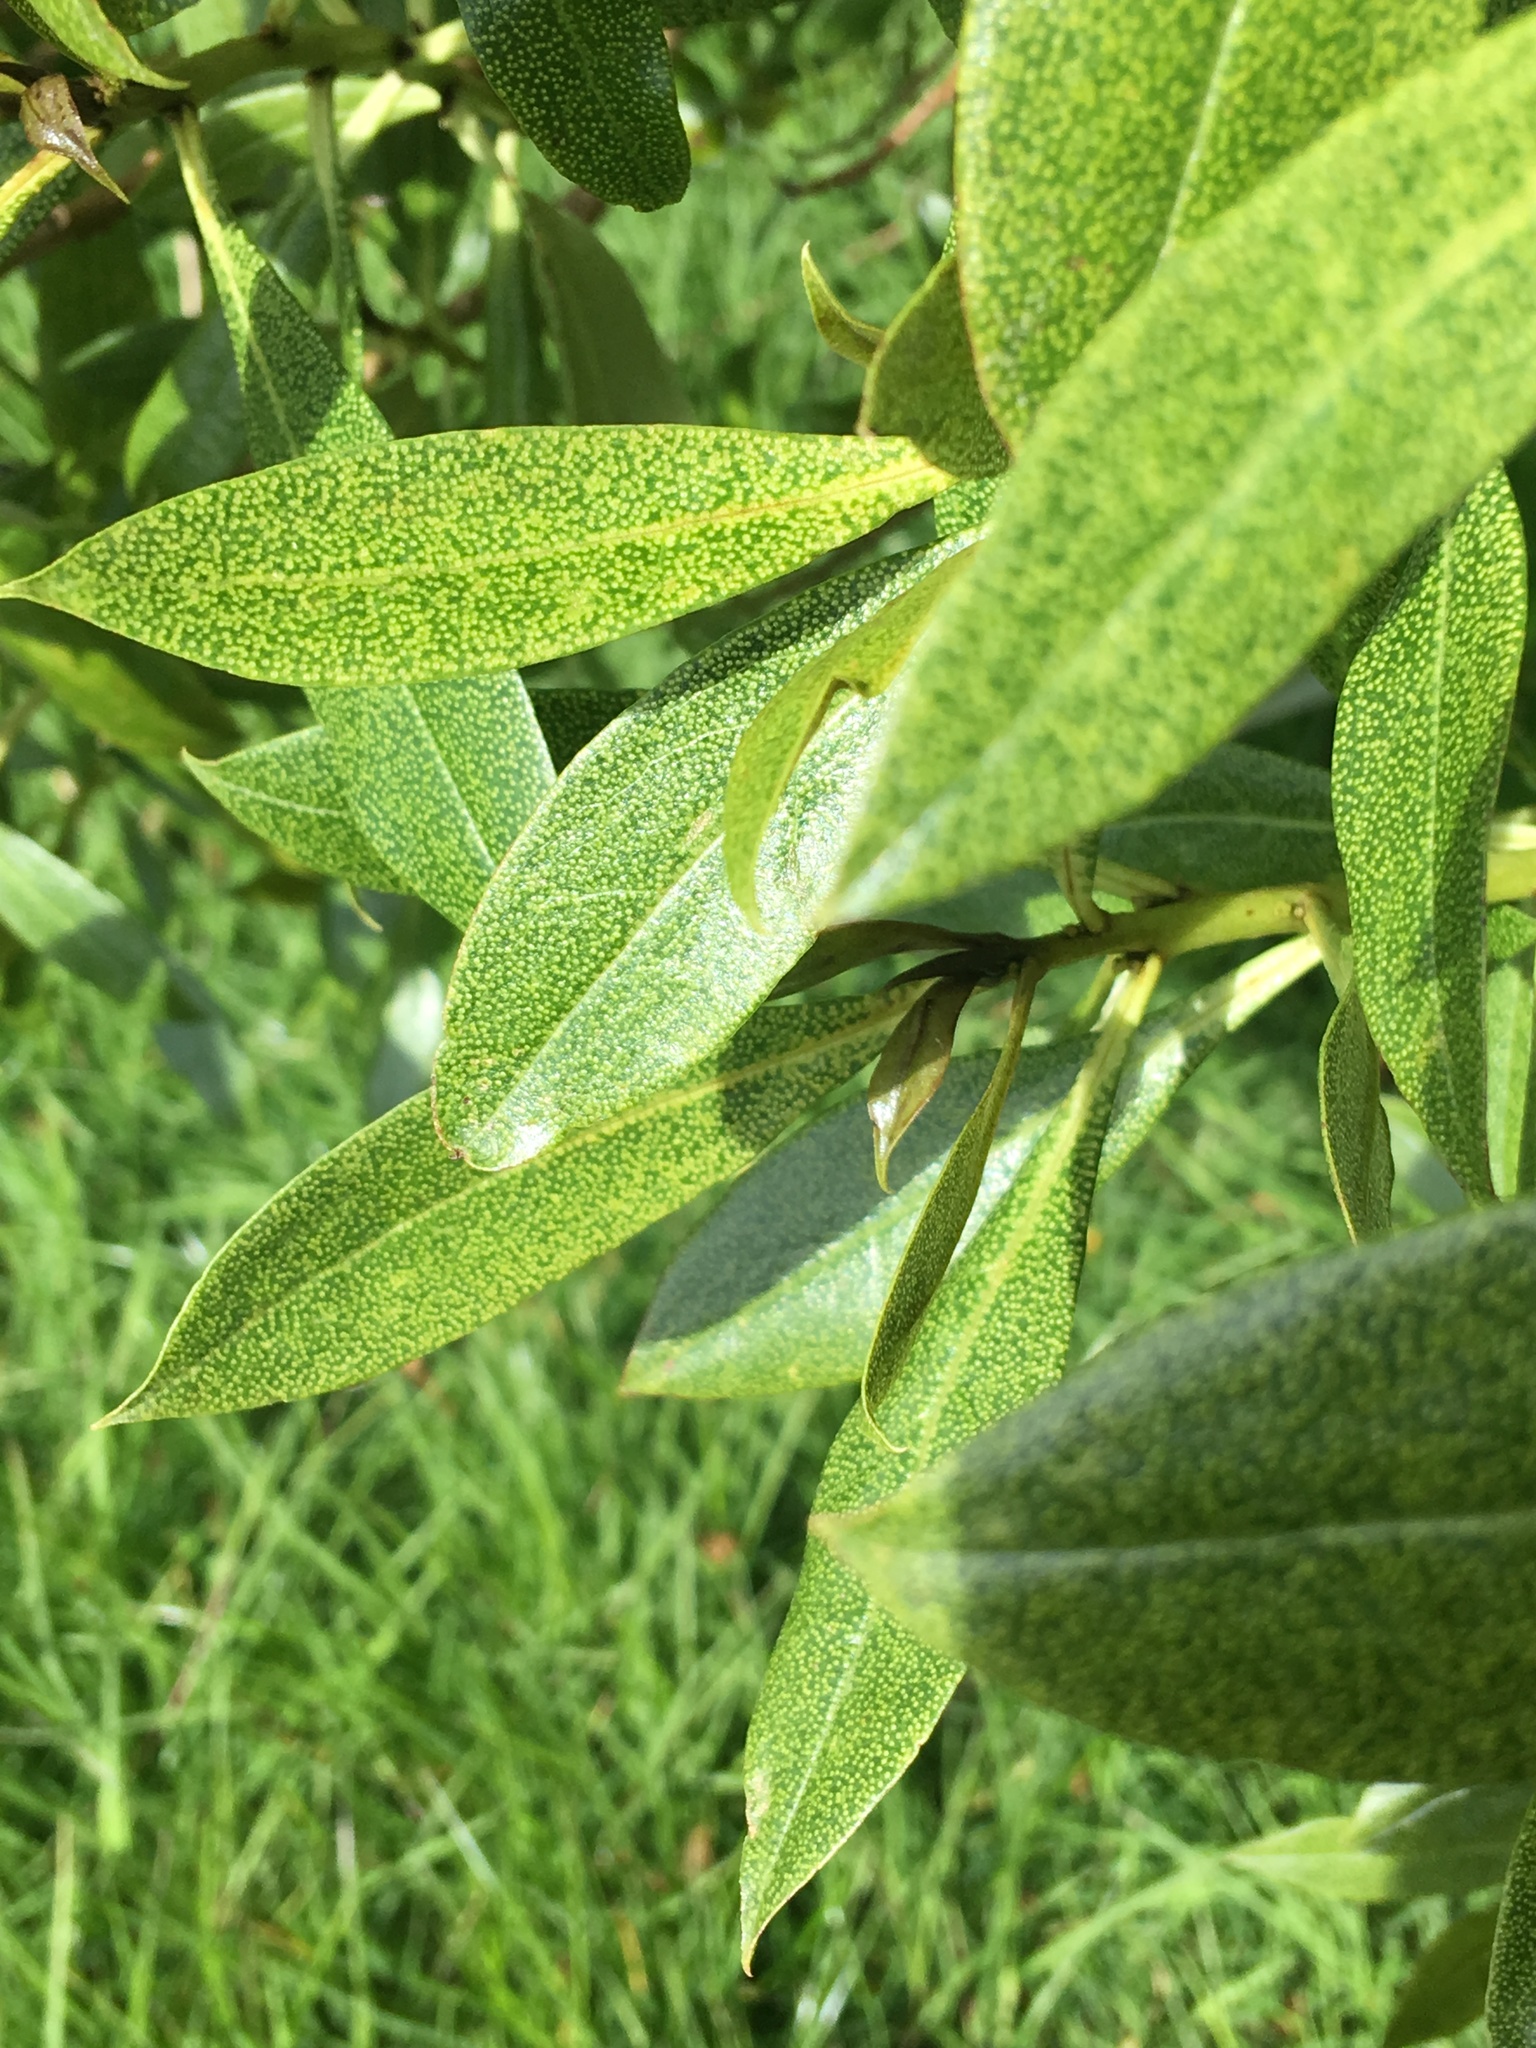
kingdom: Plantae
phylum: Tracheophyta
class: Magnoliopsida
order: Lamiales
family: Scrophulariaceae
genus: Myoporum
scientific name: Myoporum laetum
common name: Ngaio tree
